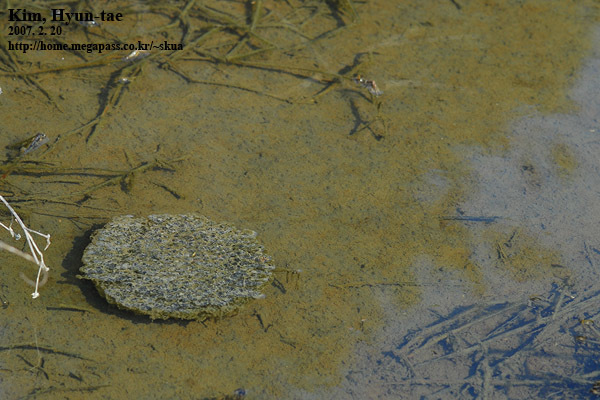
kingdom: Animalia
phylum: Chordata
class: Amphibia
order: Anura
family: Ranidae
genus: Rana
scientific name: Rana uenoi
